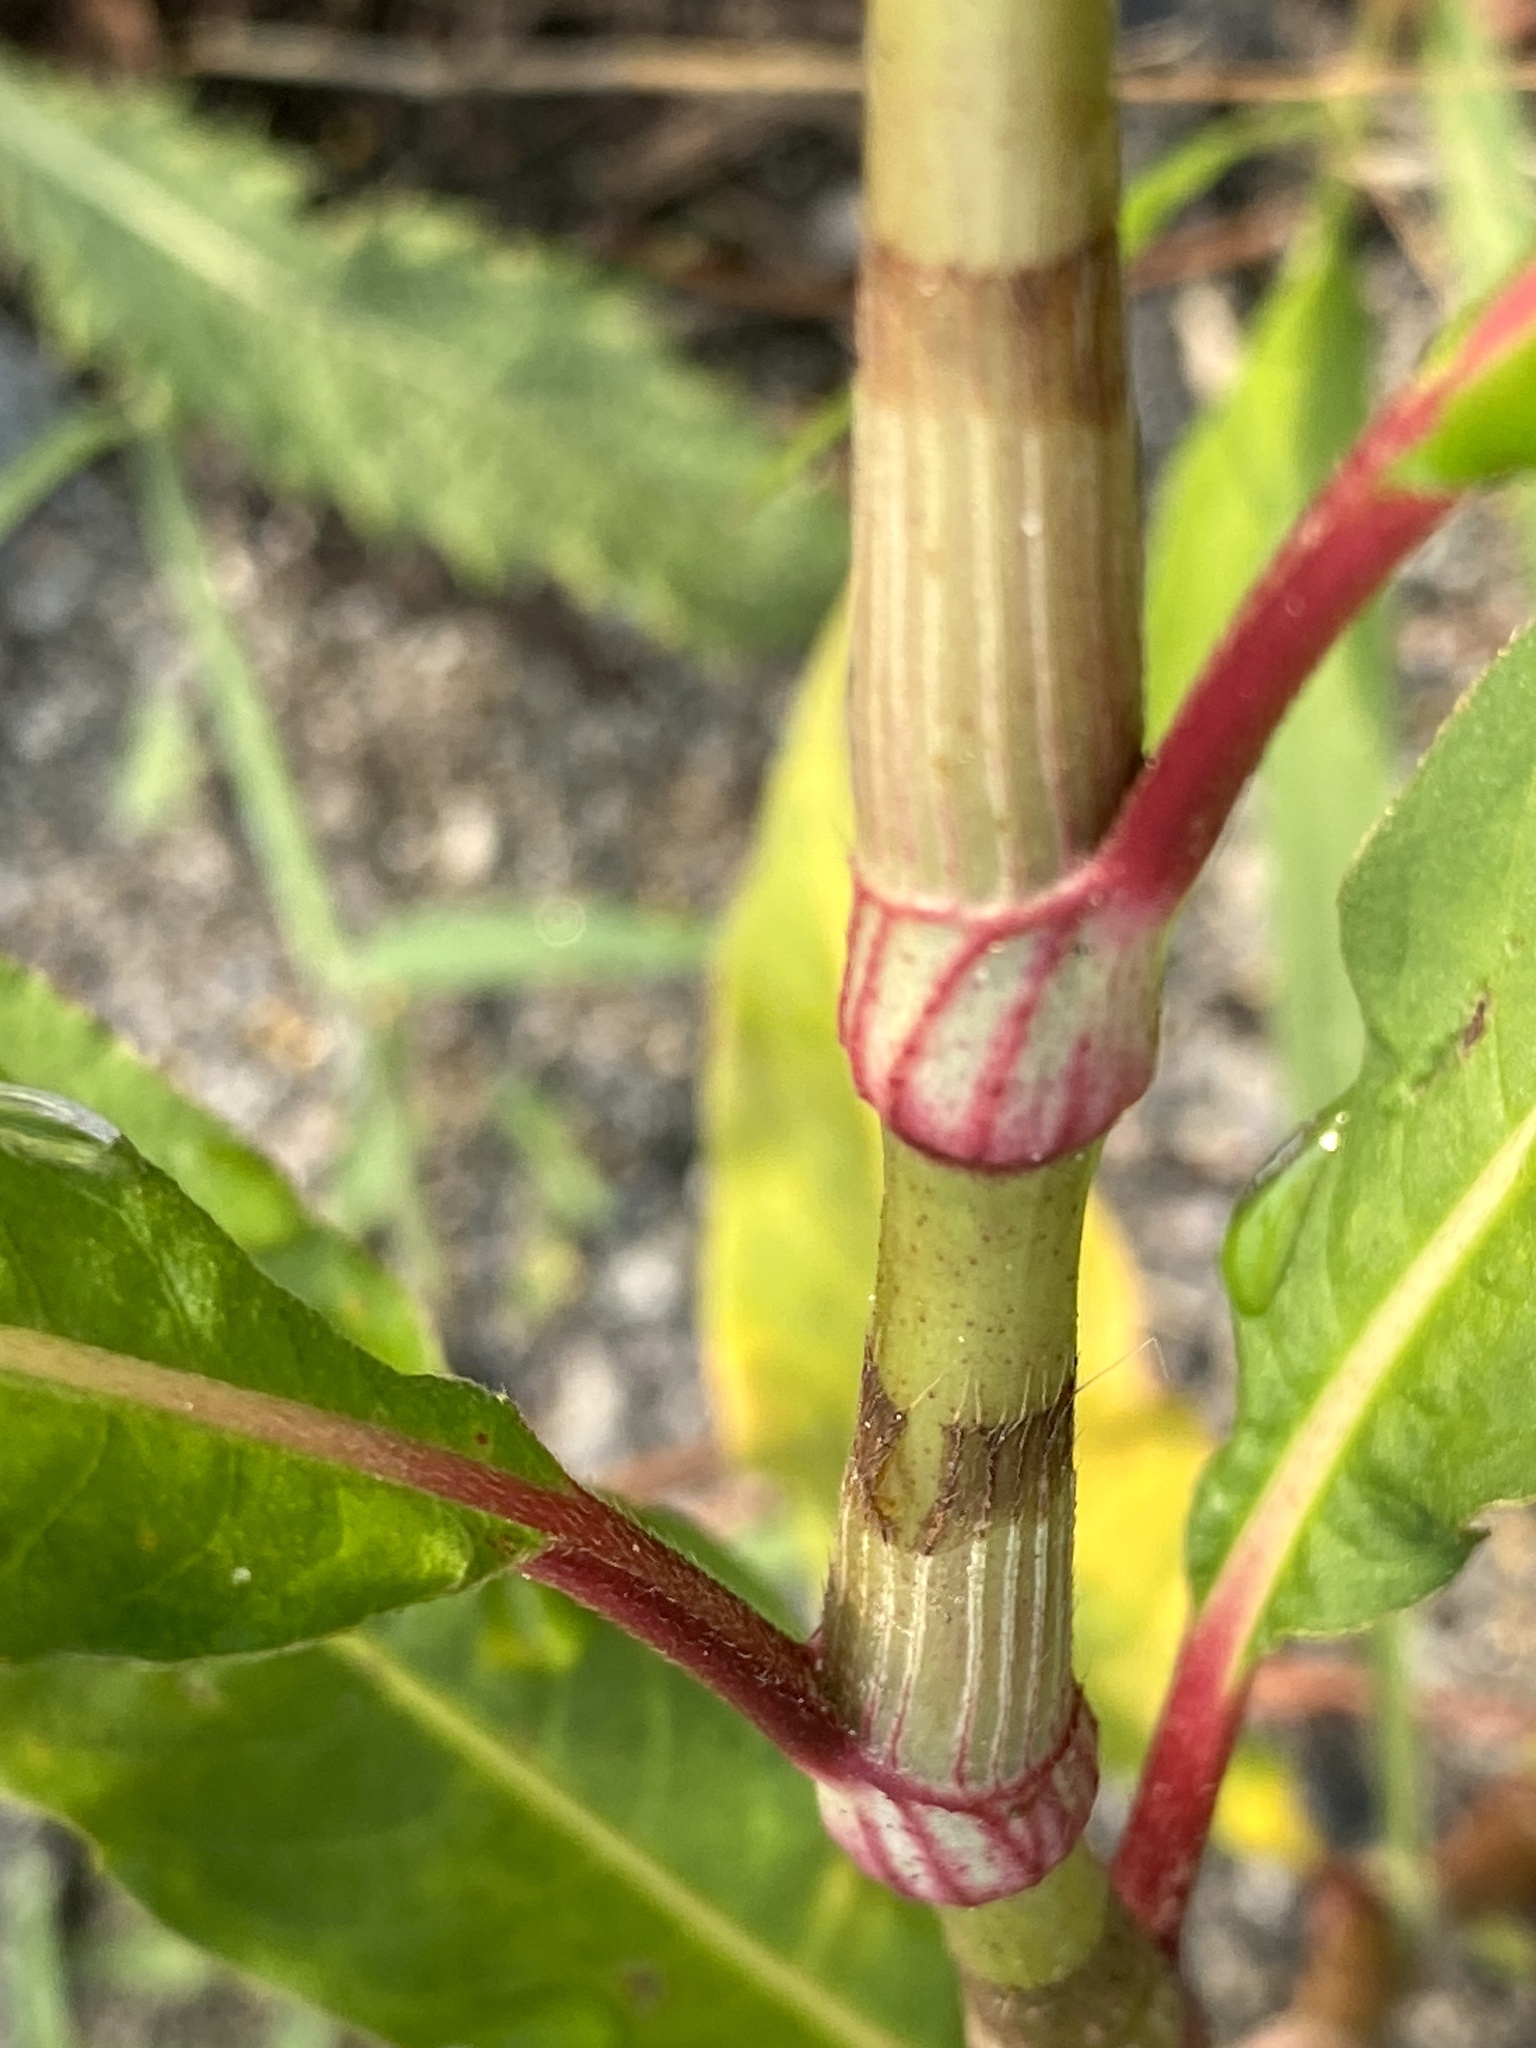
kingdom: Plantae
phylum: Tracheophyta
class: Magnoliopsida
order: Caryophyllales
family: Polygonaceae
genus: Persicaria
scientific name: Persicaria extremiorientalis
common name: Far-eastern smartweed
